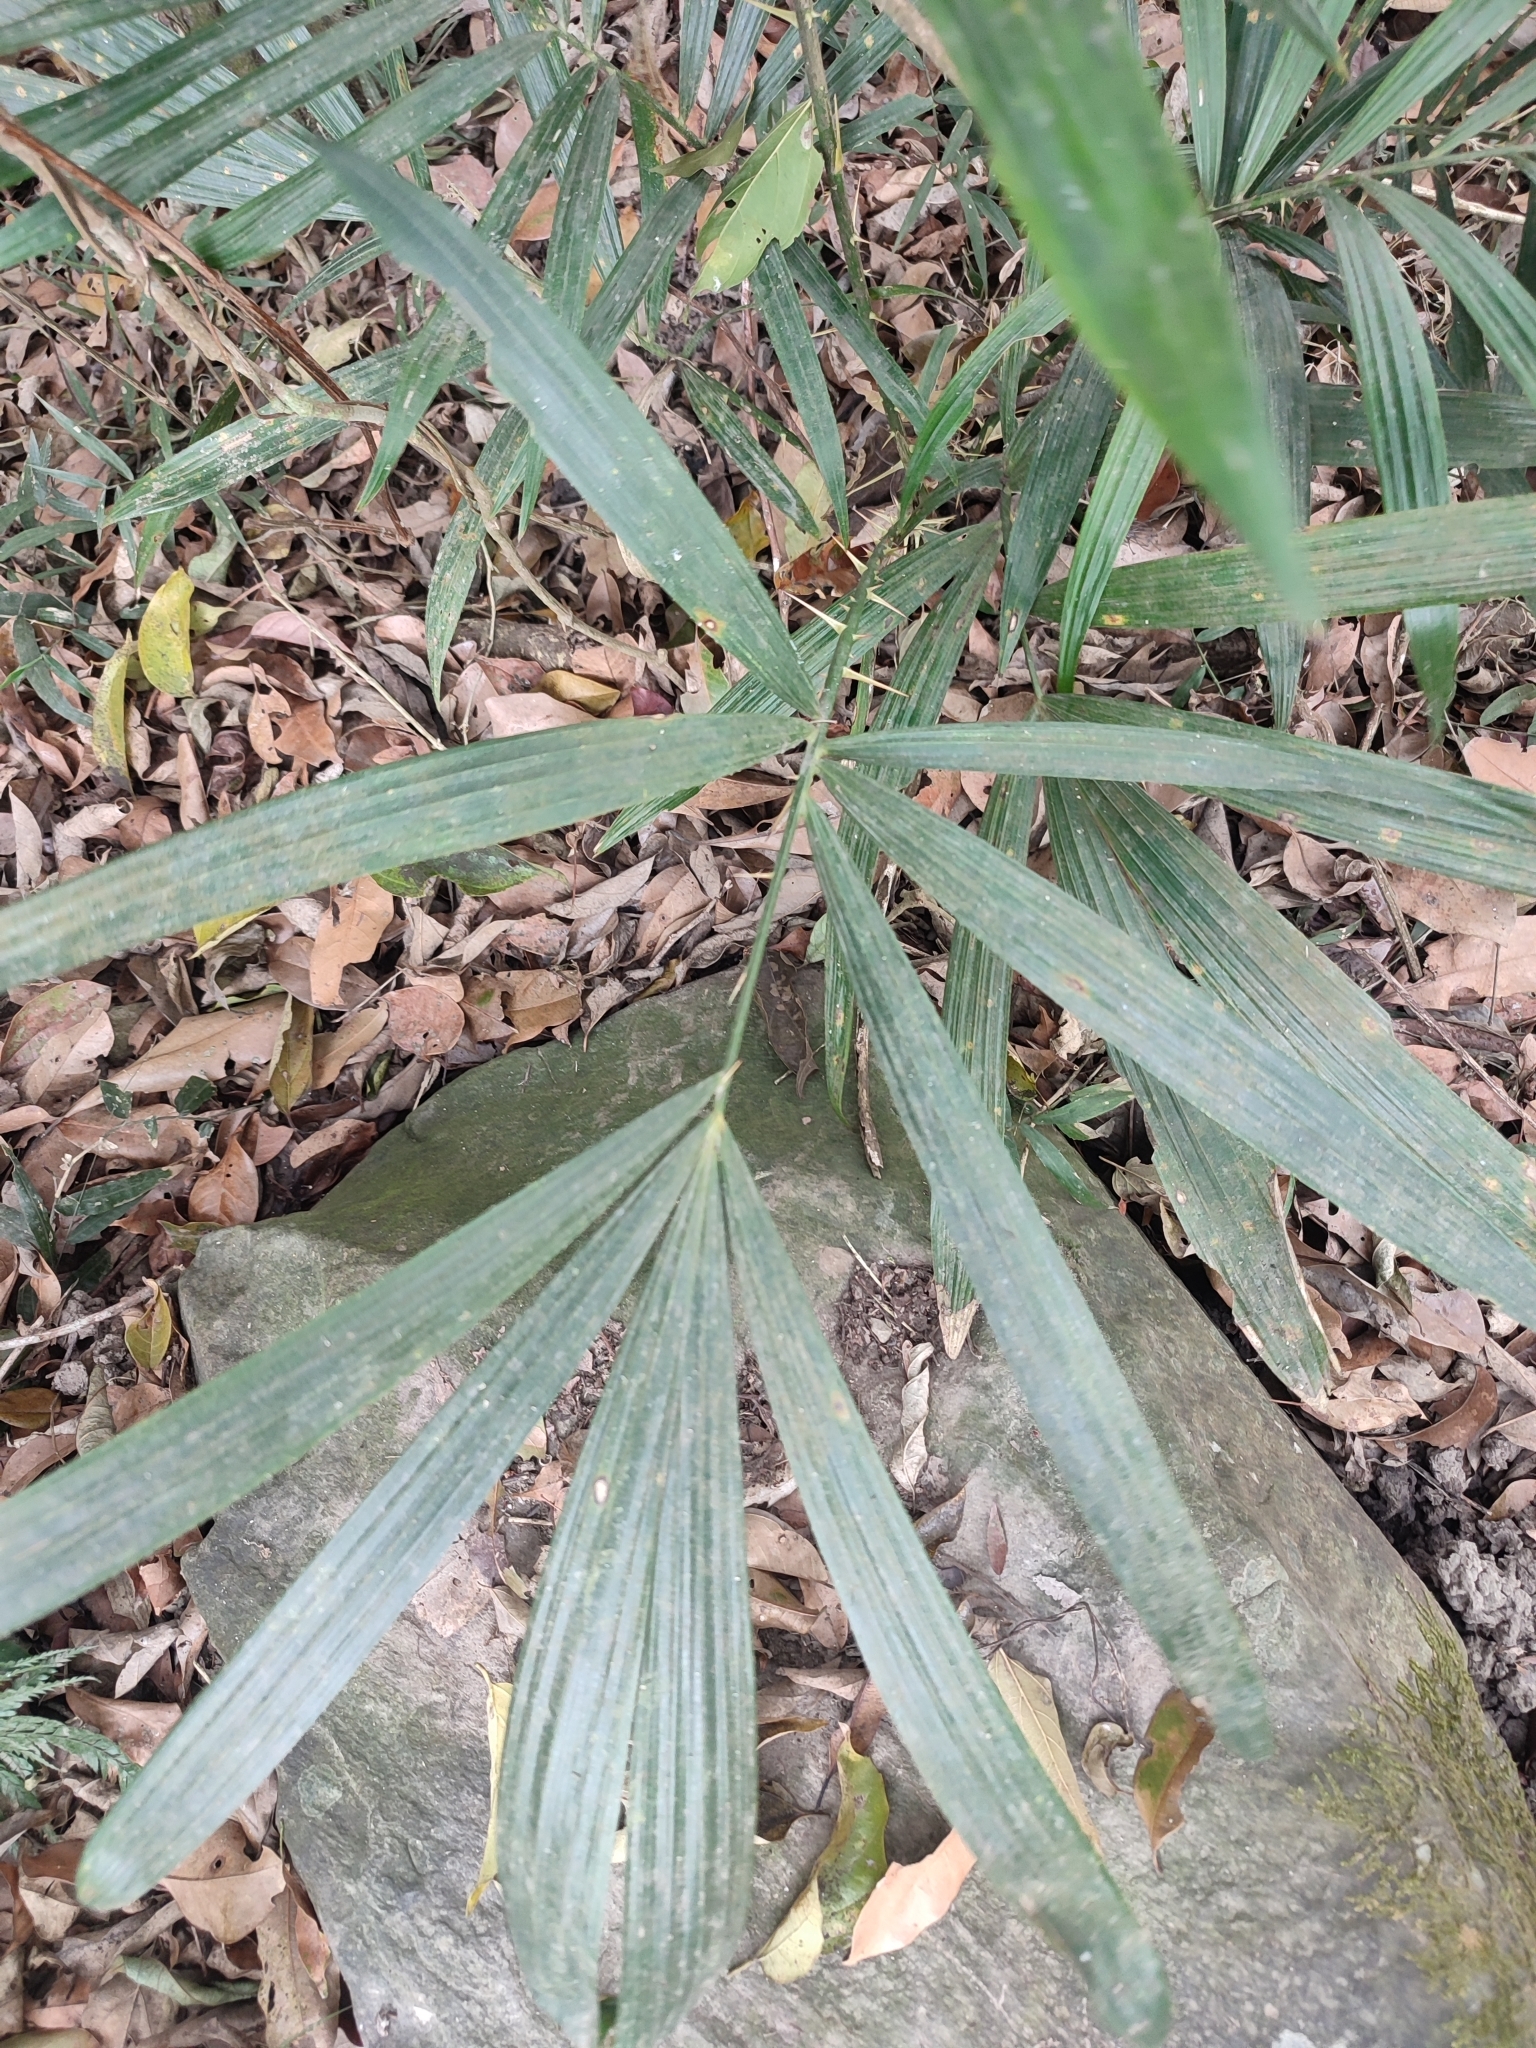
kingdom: Plantae
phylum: Tracheophyta
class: Liliopsida
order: Arecales
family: Arecaceae
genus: Calamus
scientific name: Calamus formosanus
